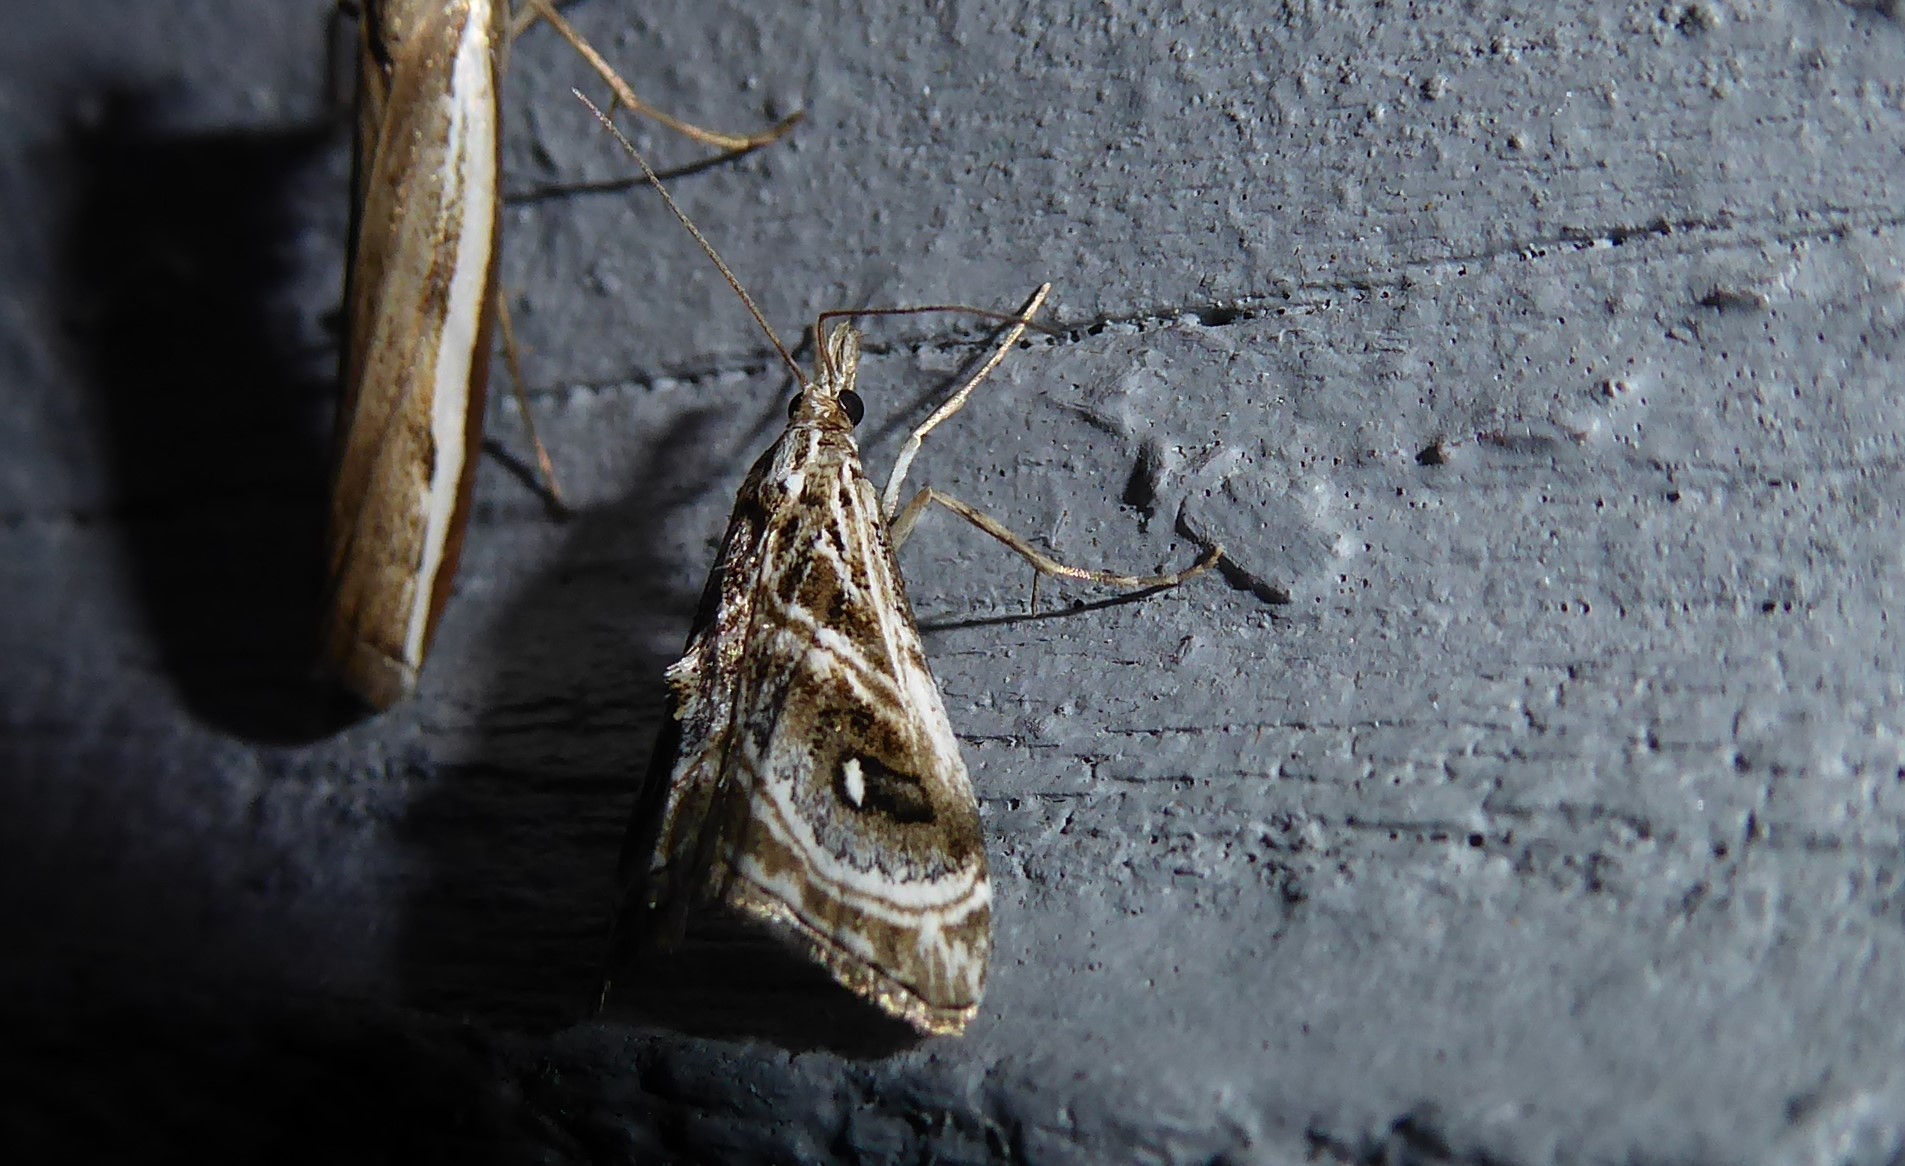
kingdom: Animalia
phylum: Arthropoda
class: Insecta
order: Lepidoptera
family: Crambidae
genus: Gadira
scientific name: Gadira acerella
